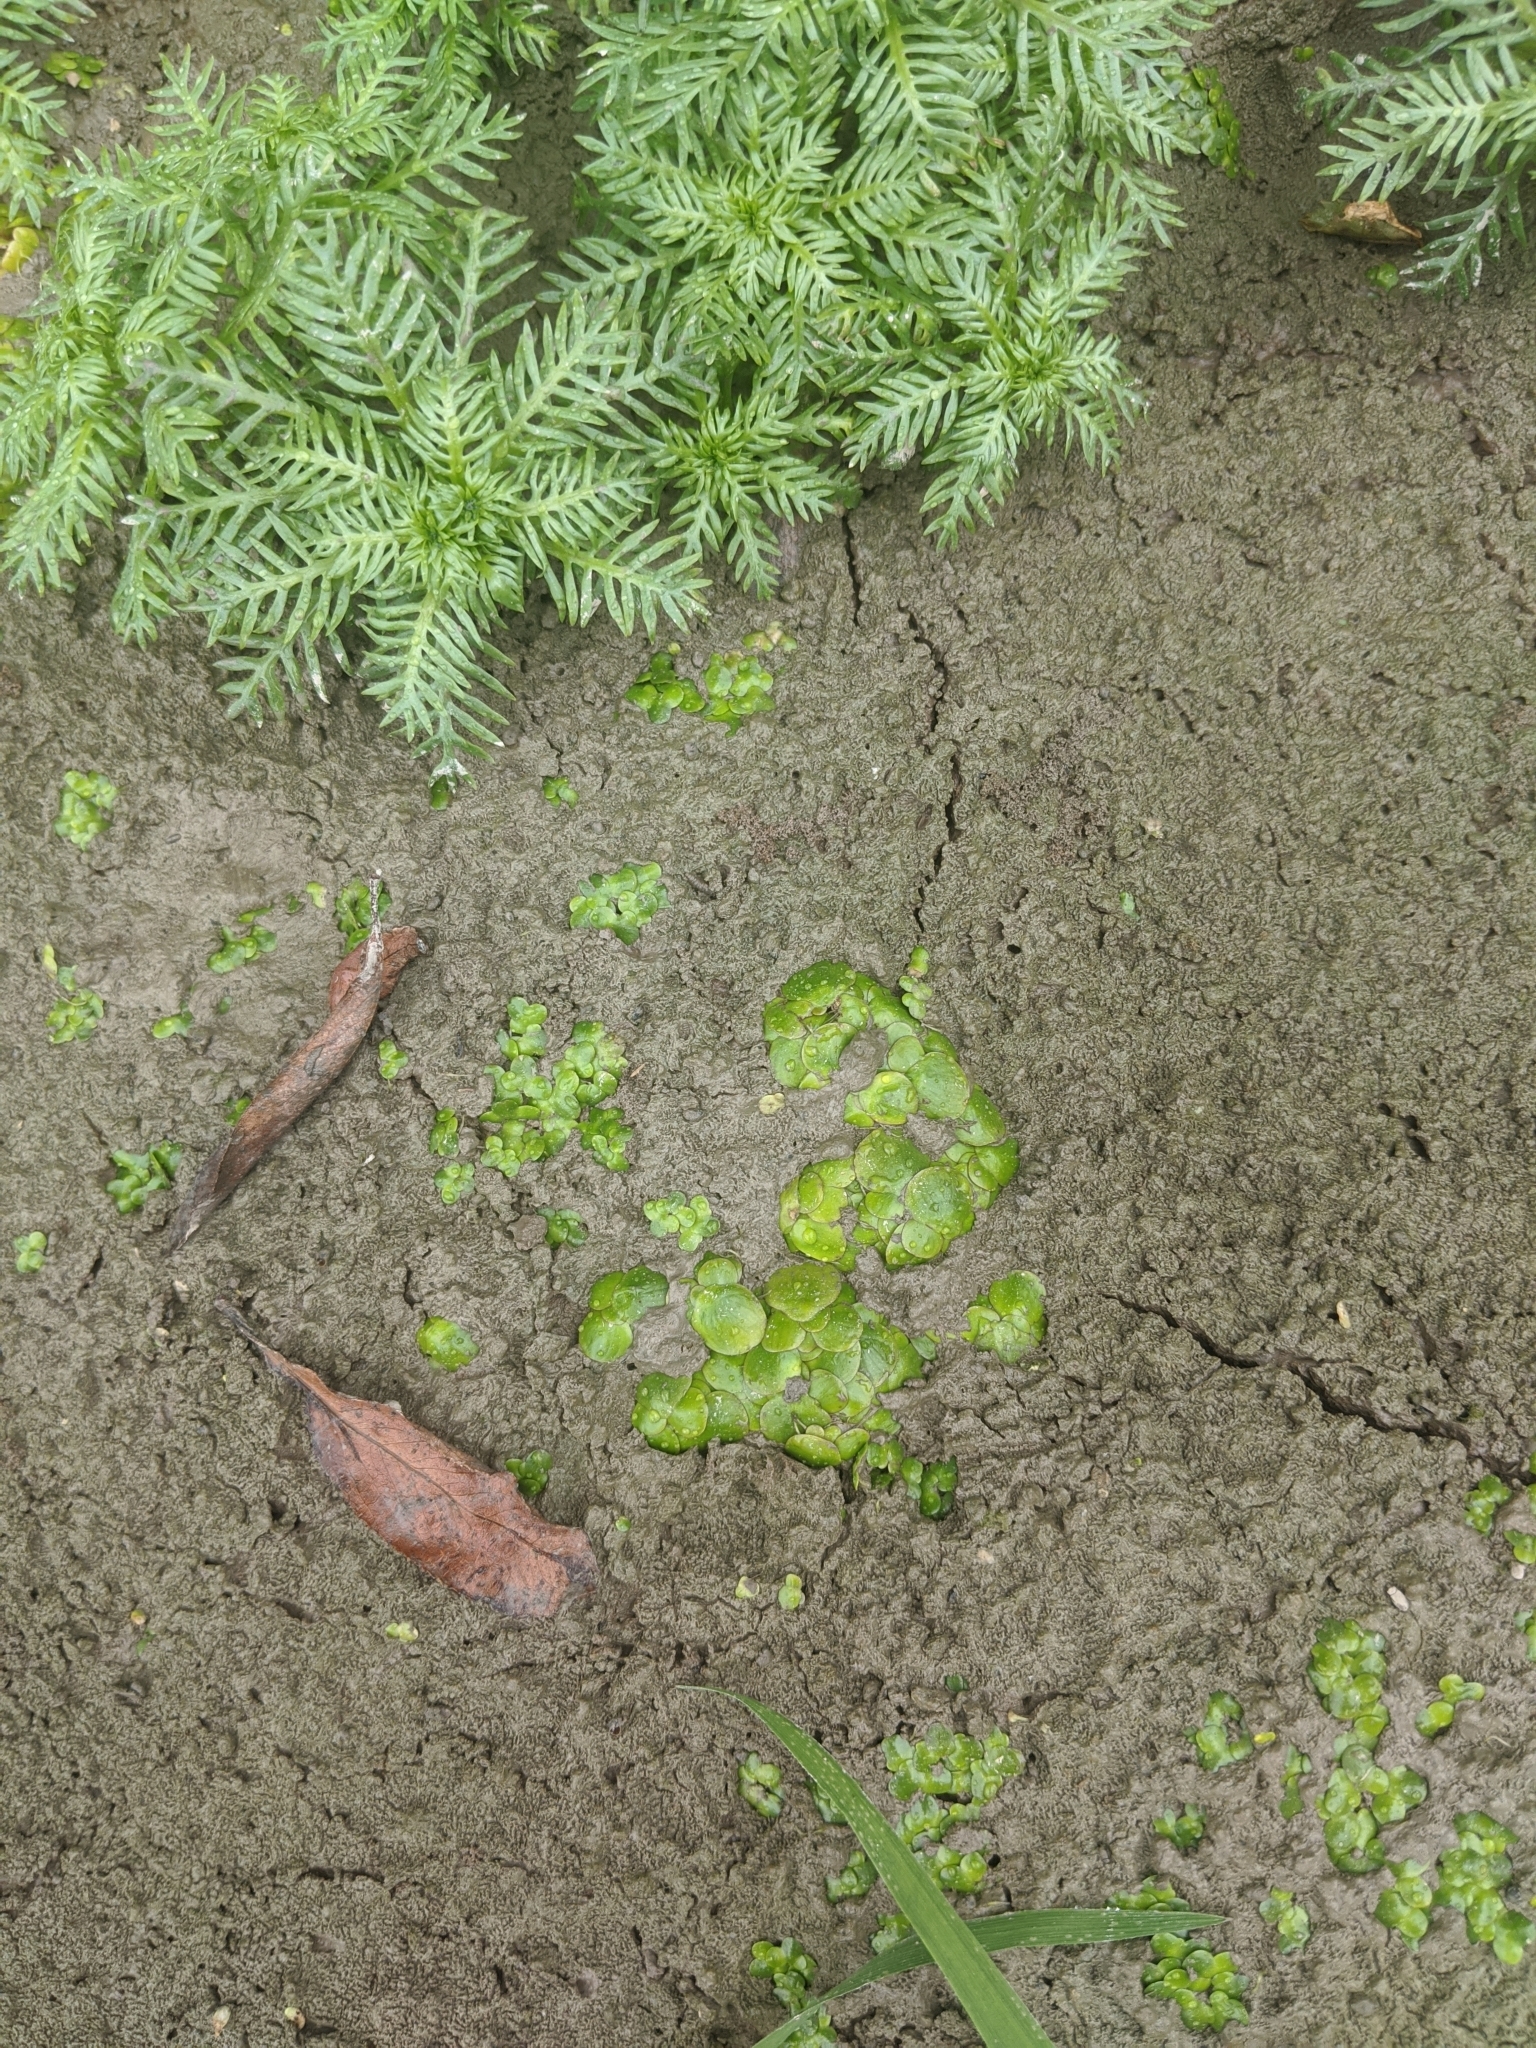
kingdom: Plantae
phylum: Tracheophyta
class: Liliopsida
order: Alismatales
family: Araceae
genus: Spirodela
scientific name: Spirodela polyrhiza
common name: Great duckweed
